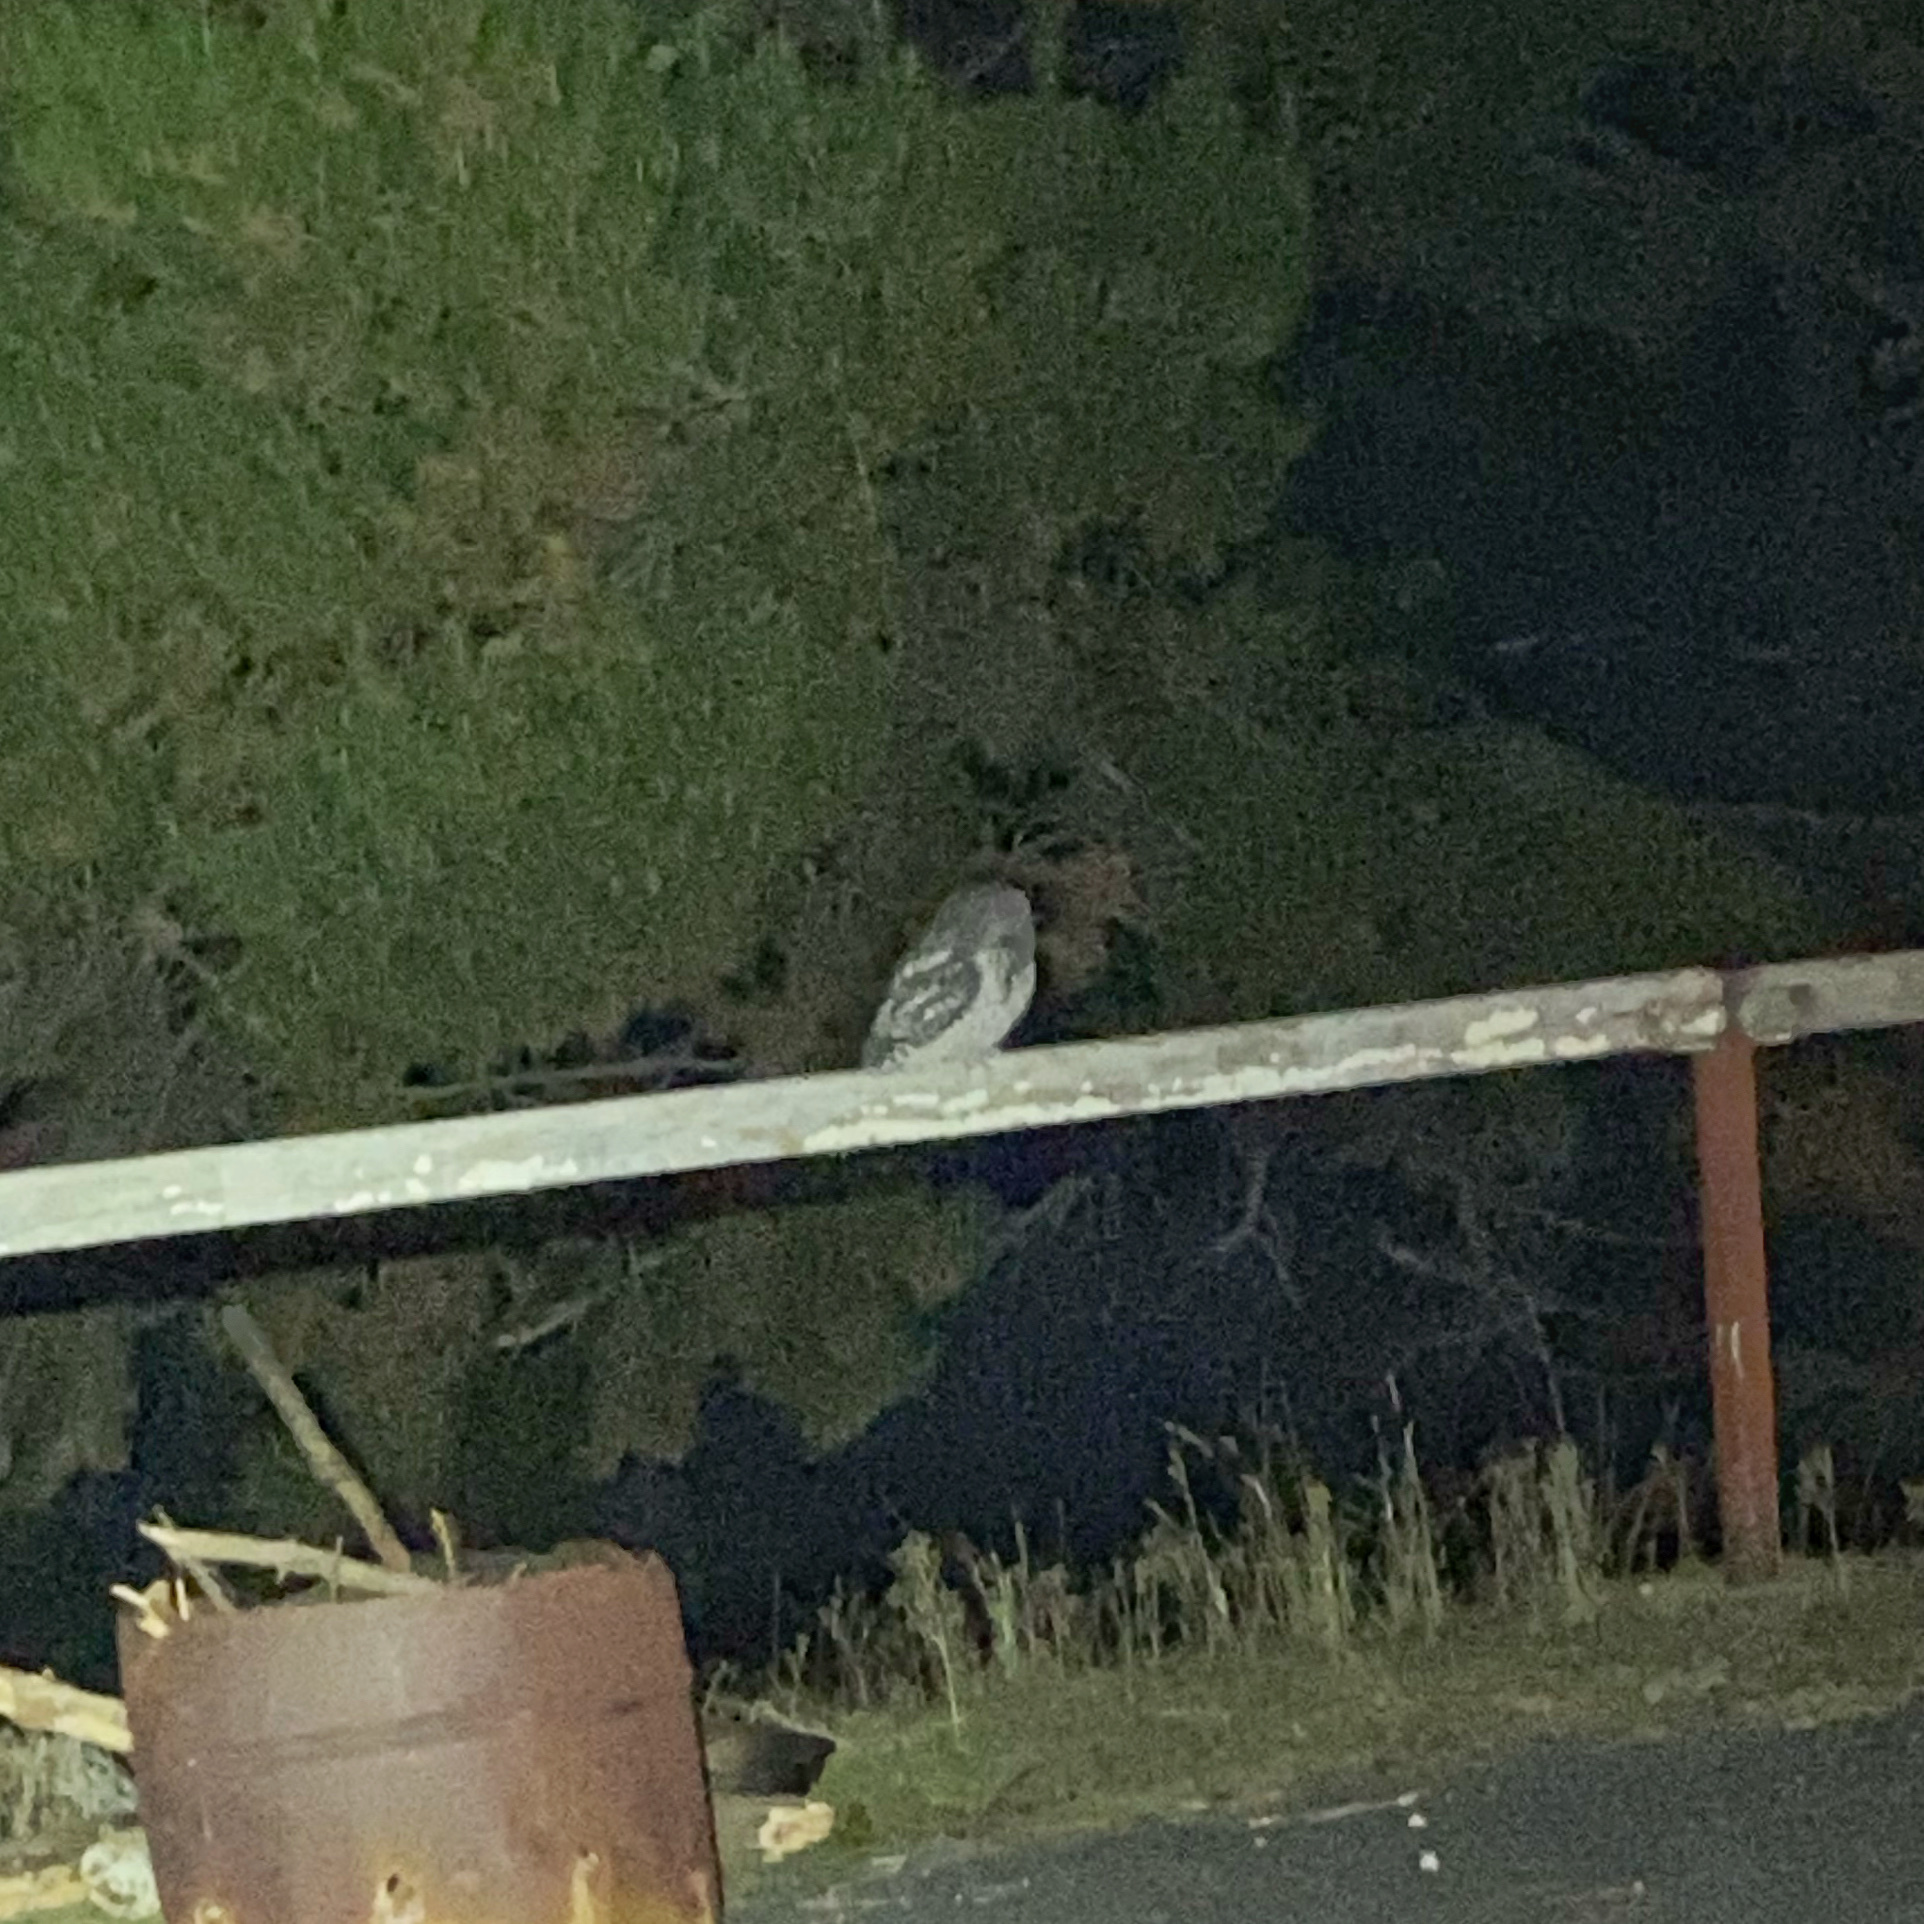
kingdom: Animalia
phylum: Chordata
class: Aves
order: Caprimulgiformes
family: Podargidae
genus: Podargus
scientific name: Podargus strigoides
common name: Tawny frogmouth
